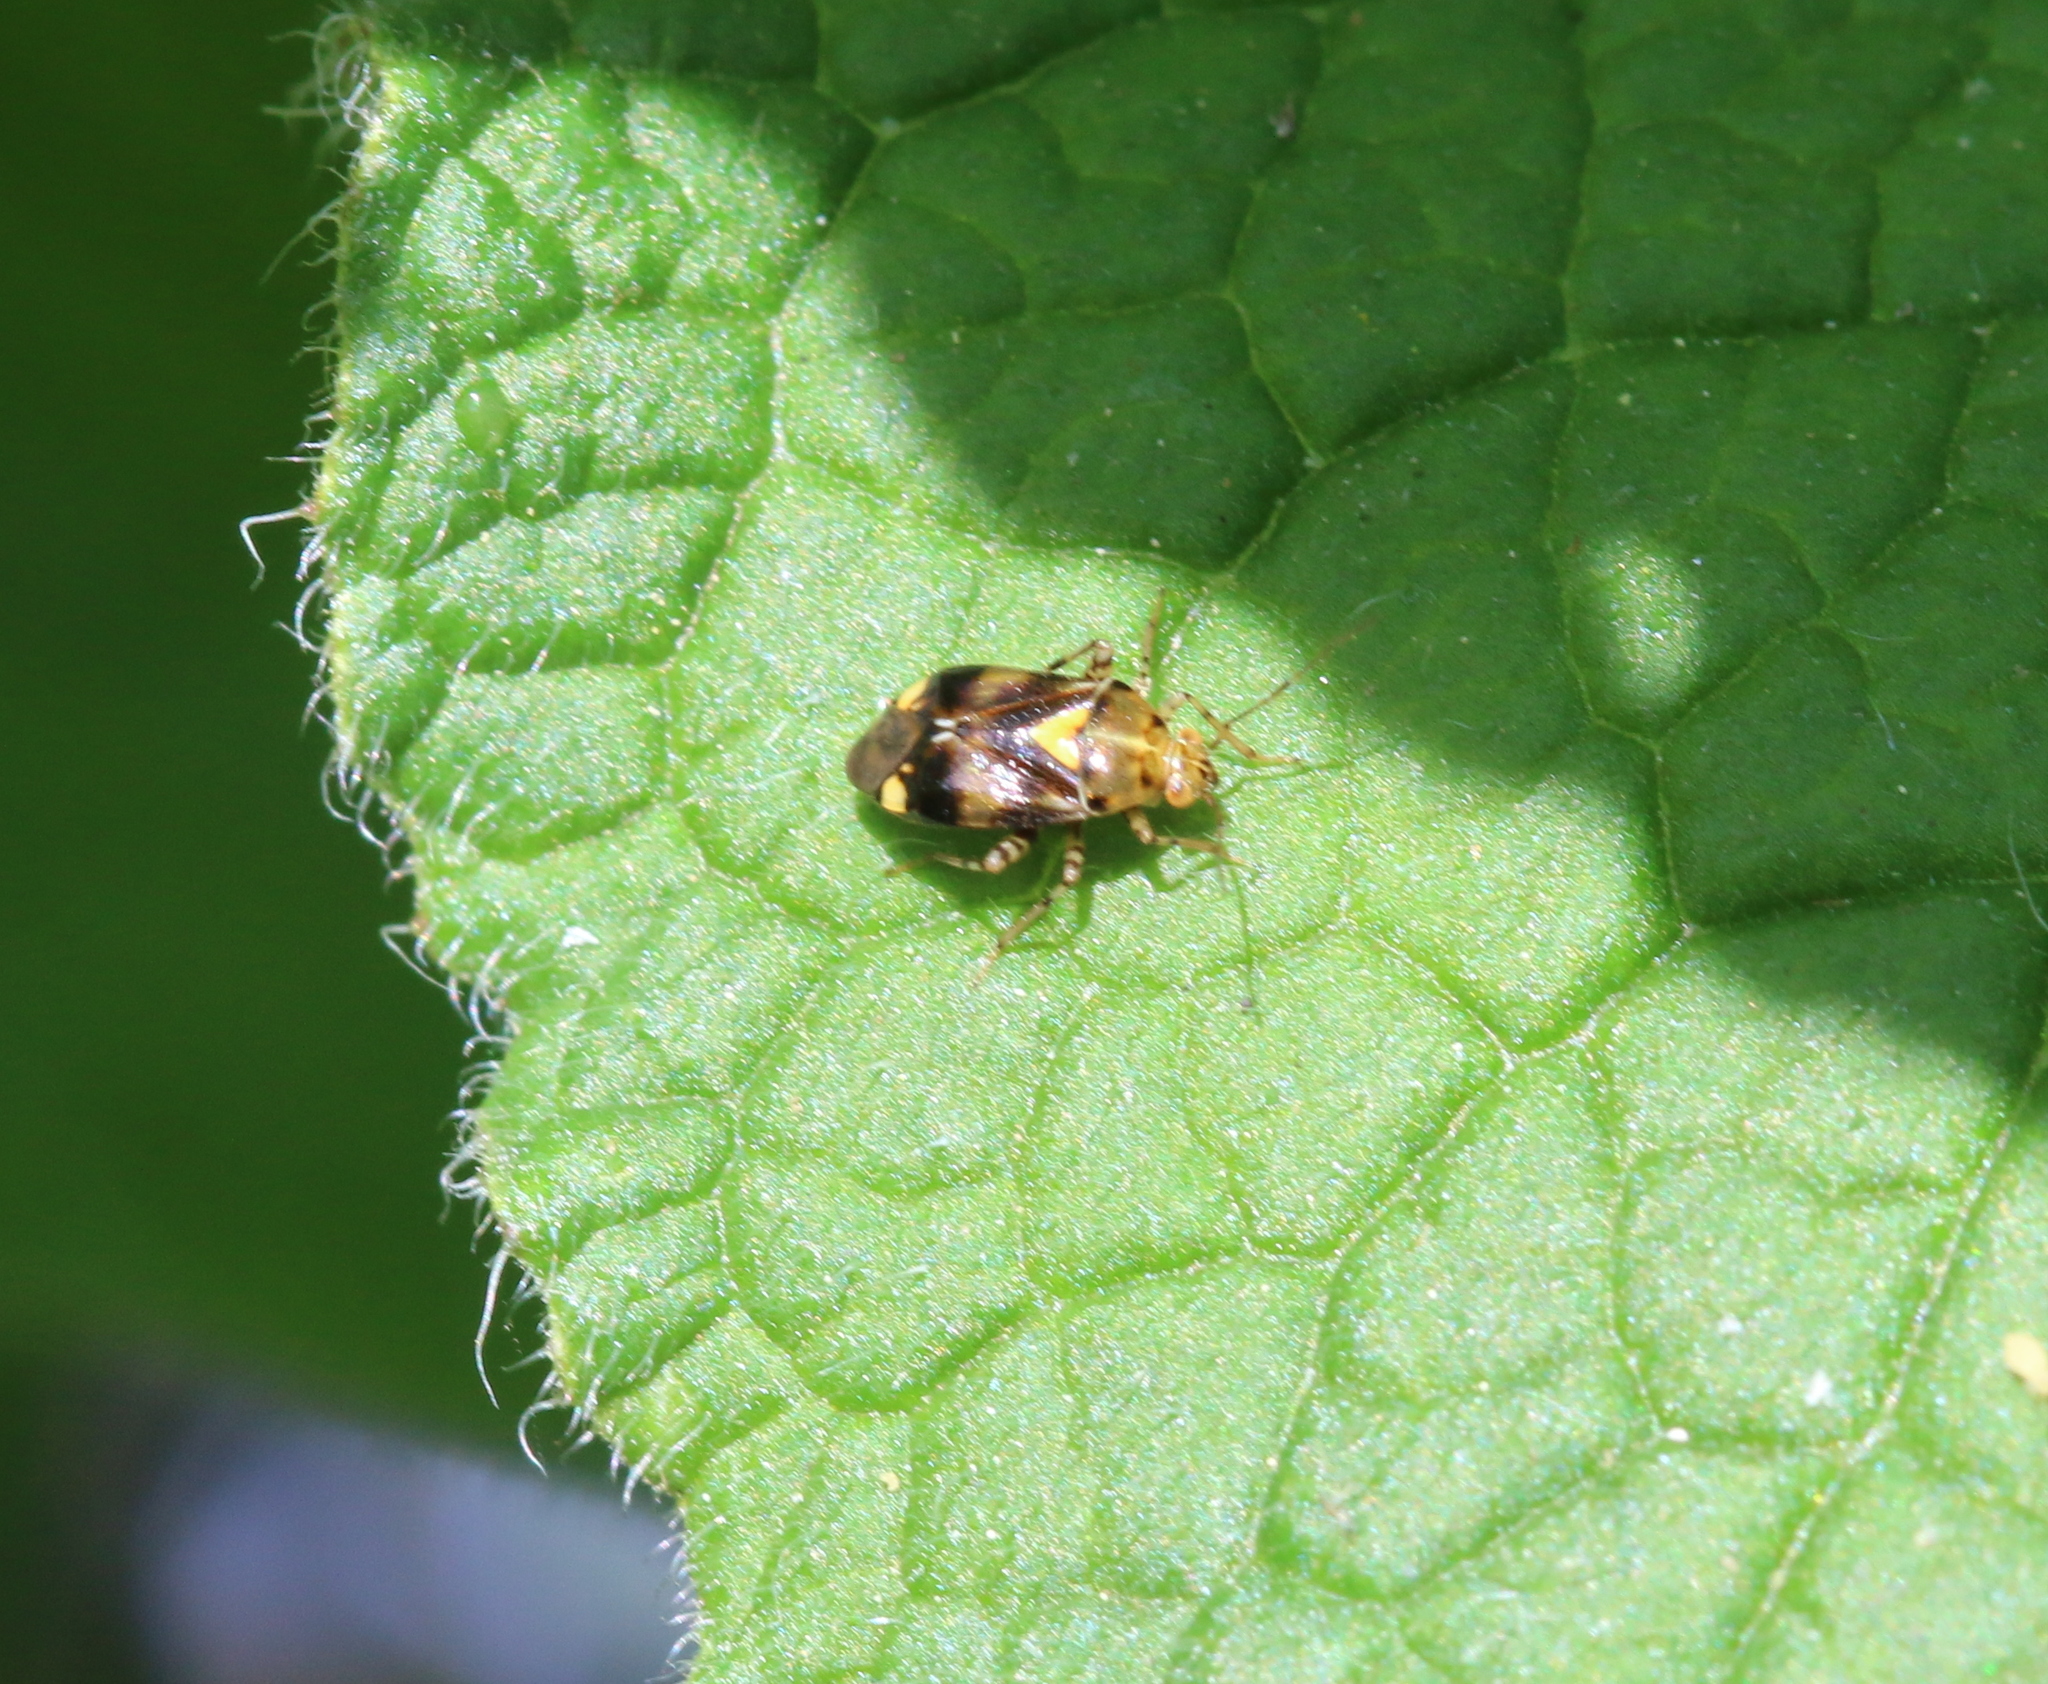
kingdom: Animalia
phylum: Arthropoda
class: Insecta
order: Hemiptera
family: Miridae
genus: Liocoris
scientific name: Liocoris tripustulatus
